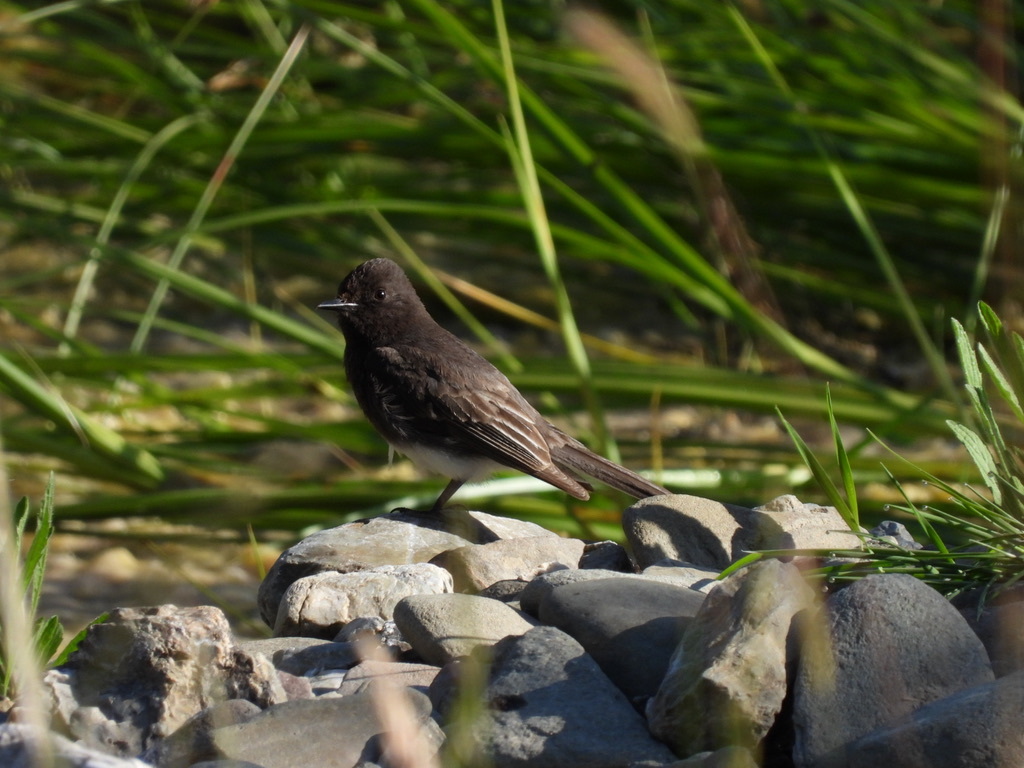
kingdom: Animalia
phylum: Chordata
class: Aves
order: Passeriformes
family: Tyrannidae
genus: Sayornis
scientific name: Sayornis nigricans
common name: Black phoebe
